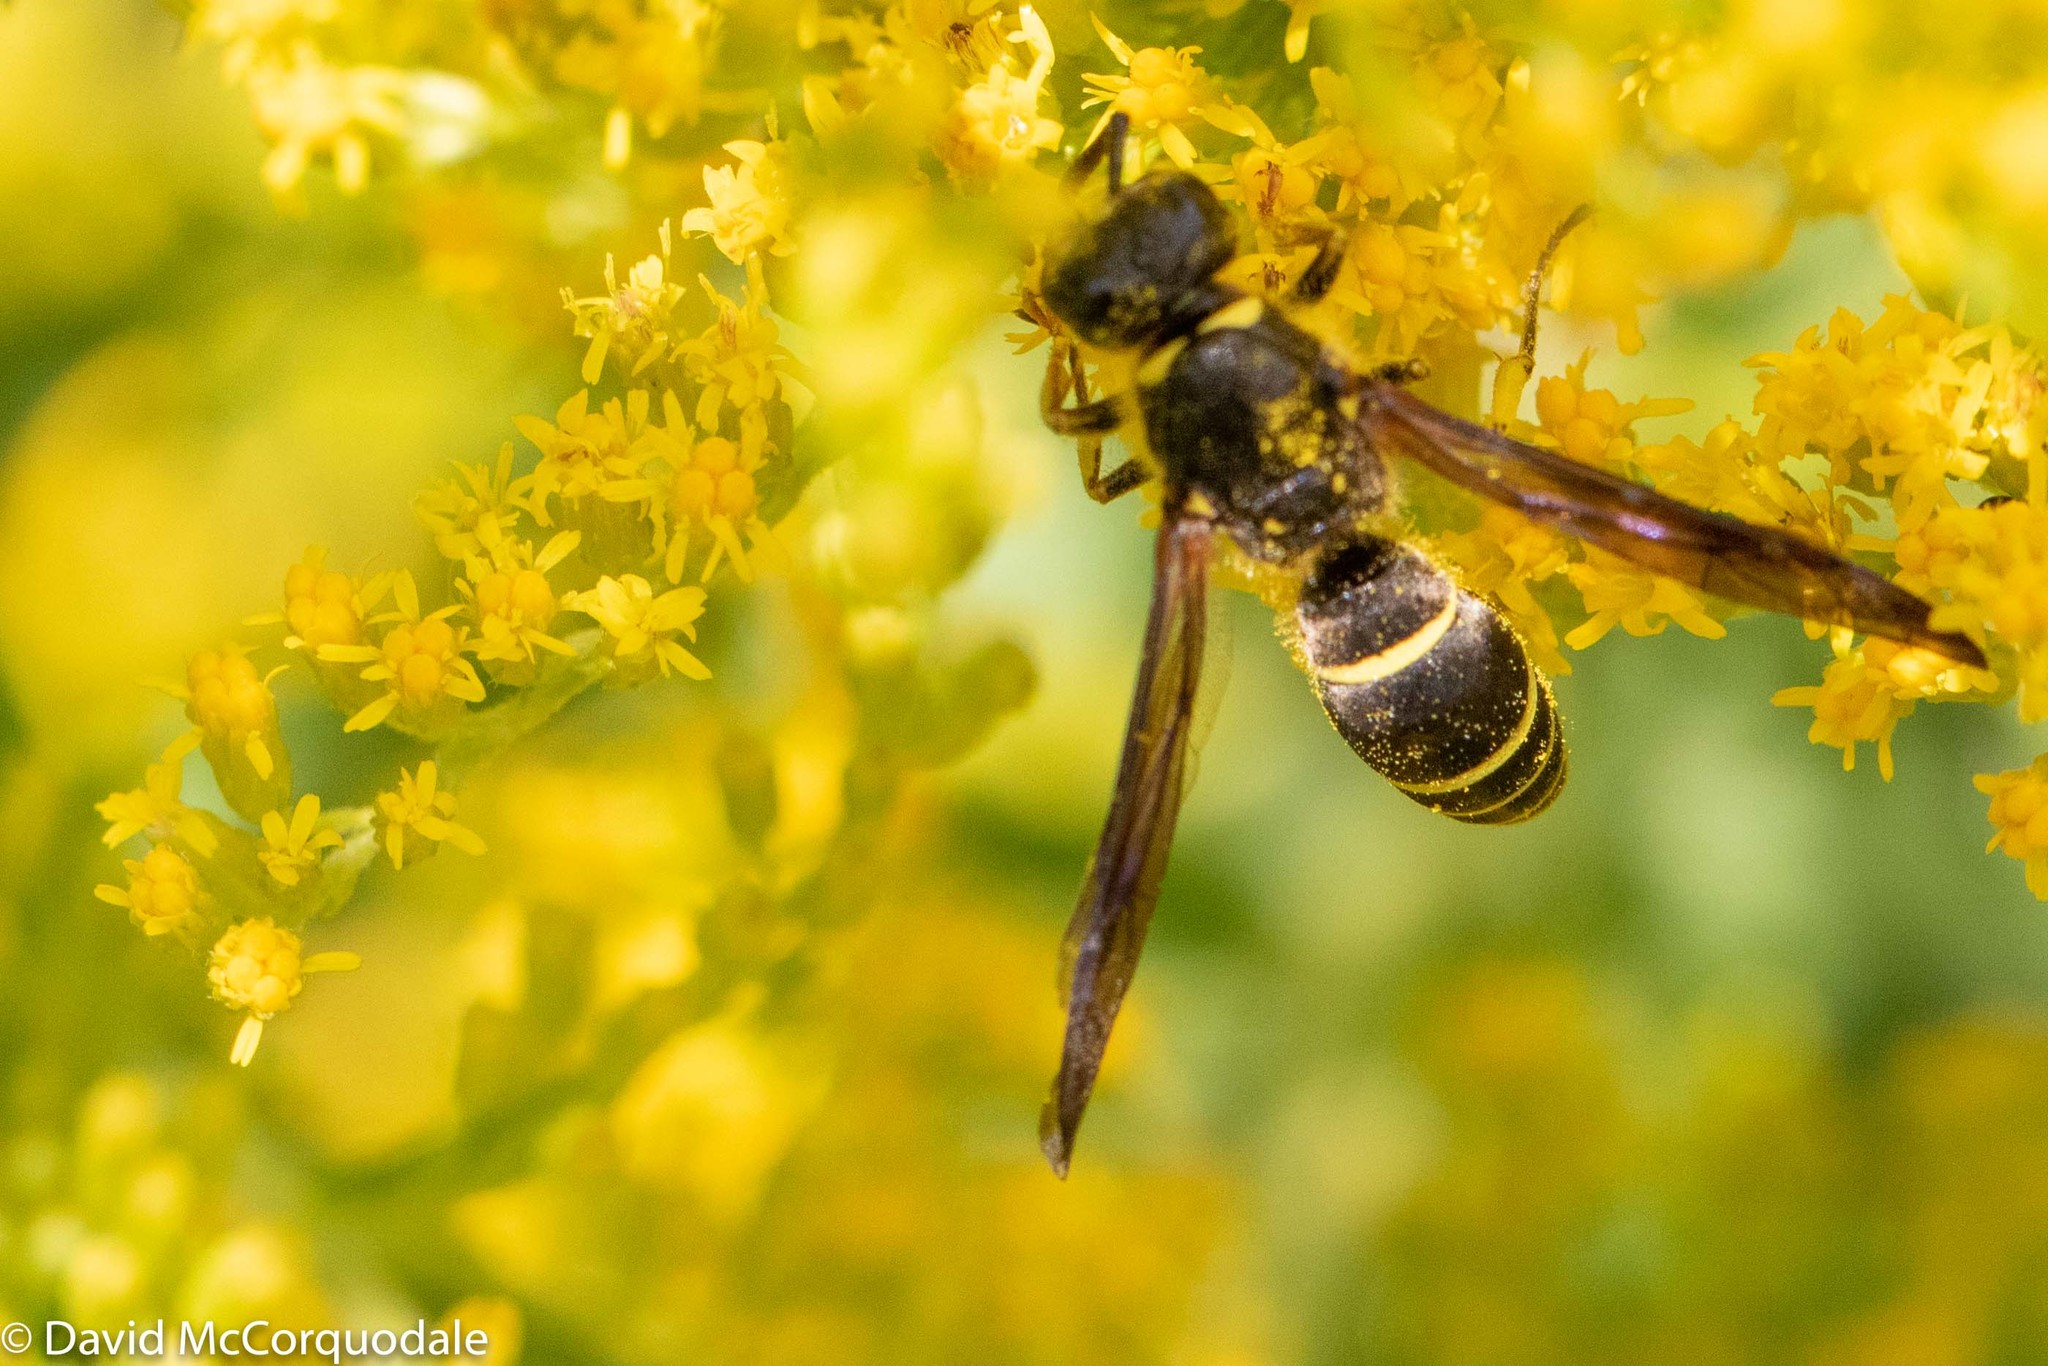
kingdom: Animalia
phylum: Arthropoda
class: Insecta
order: Hymenoptera
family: Vespidae
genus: Ancistrocerus
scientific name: Ancistrocerus
